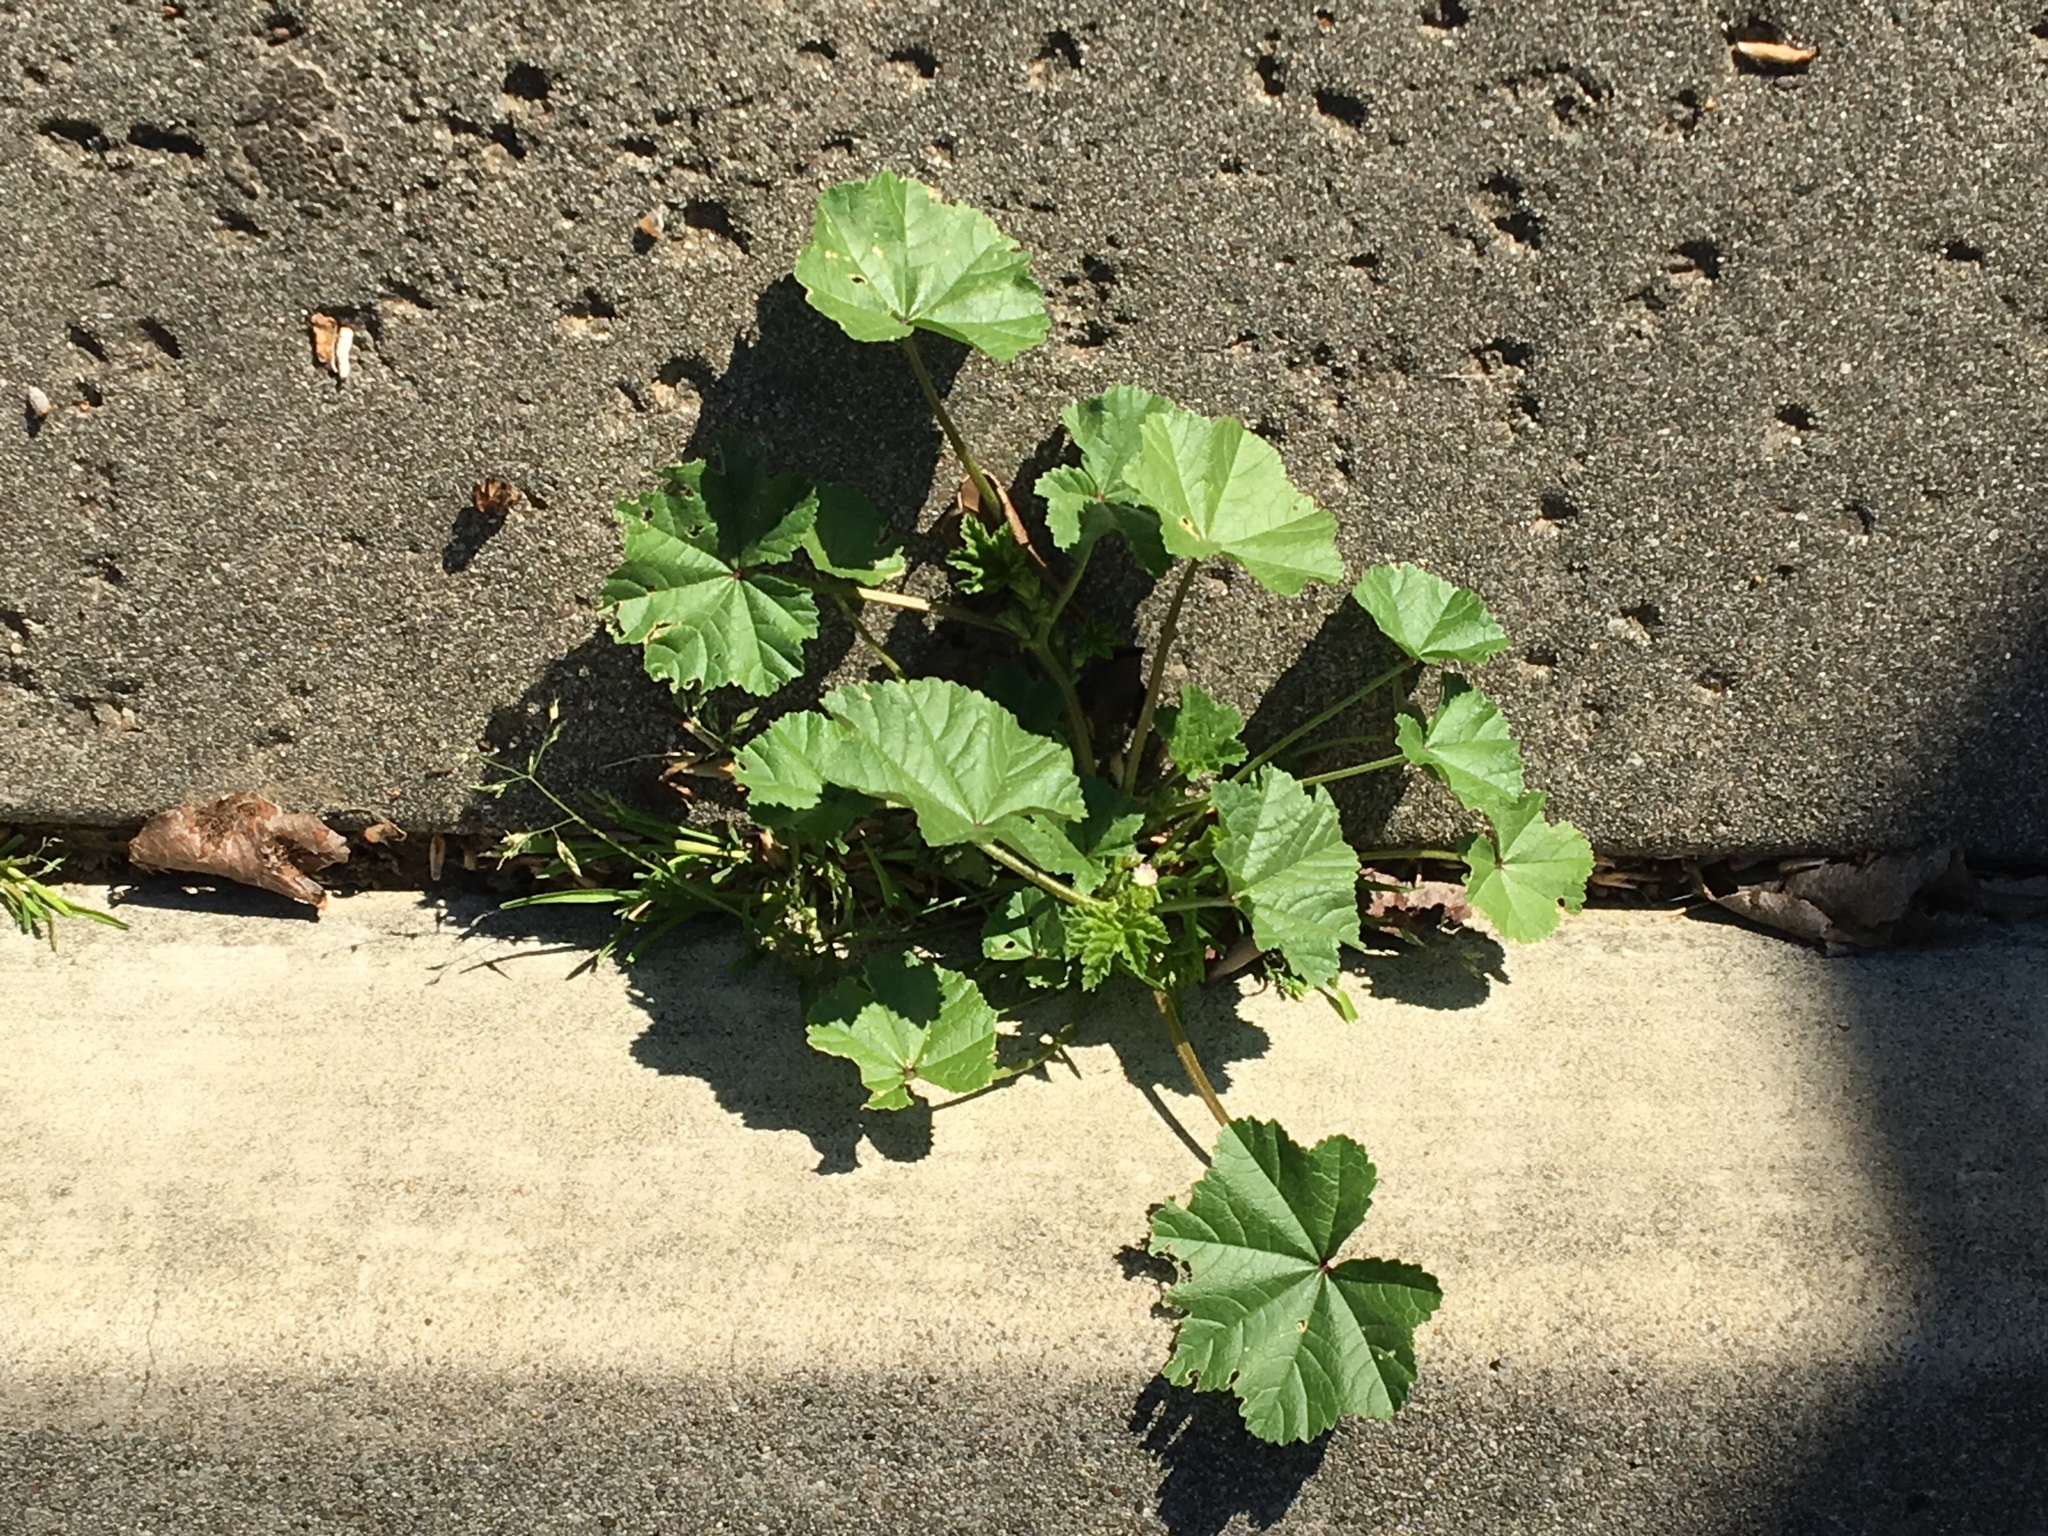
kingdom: Plantae
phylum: Tracheophyta
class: Magnoliopsida
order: Malvales
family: Malvaceae
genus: Malva
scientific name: Malva parviflora
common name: Least mallow
